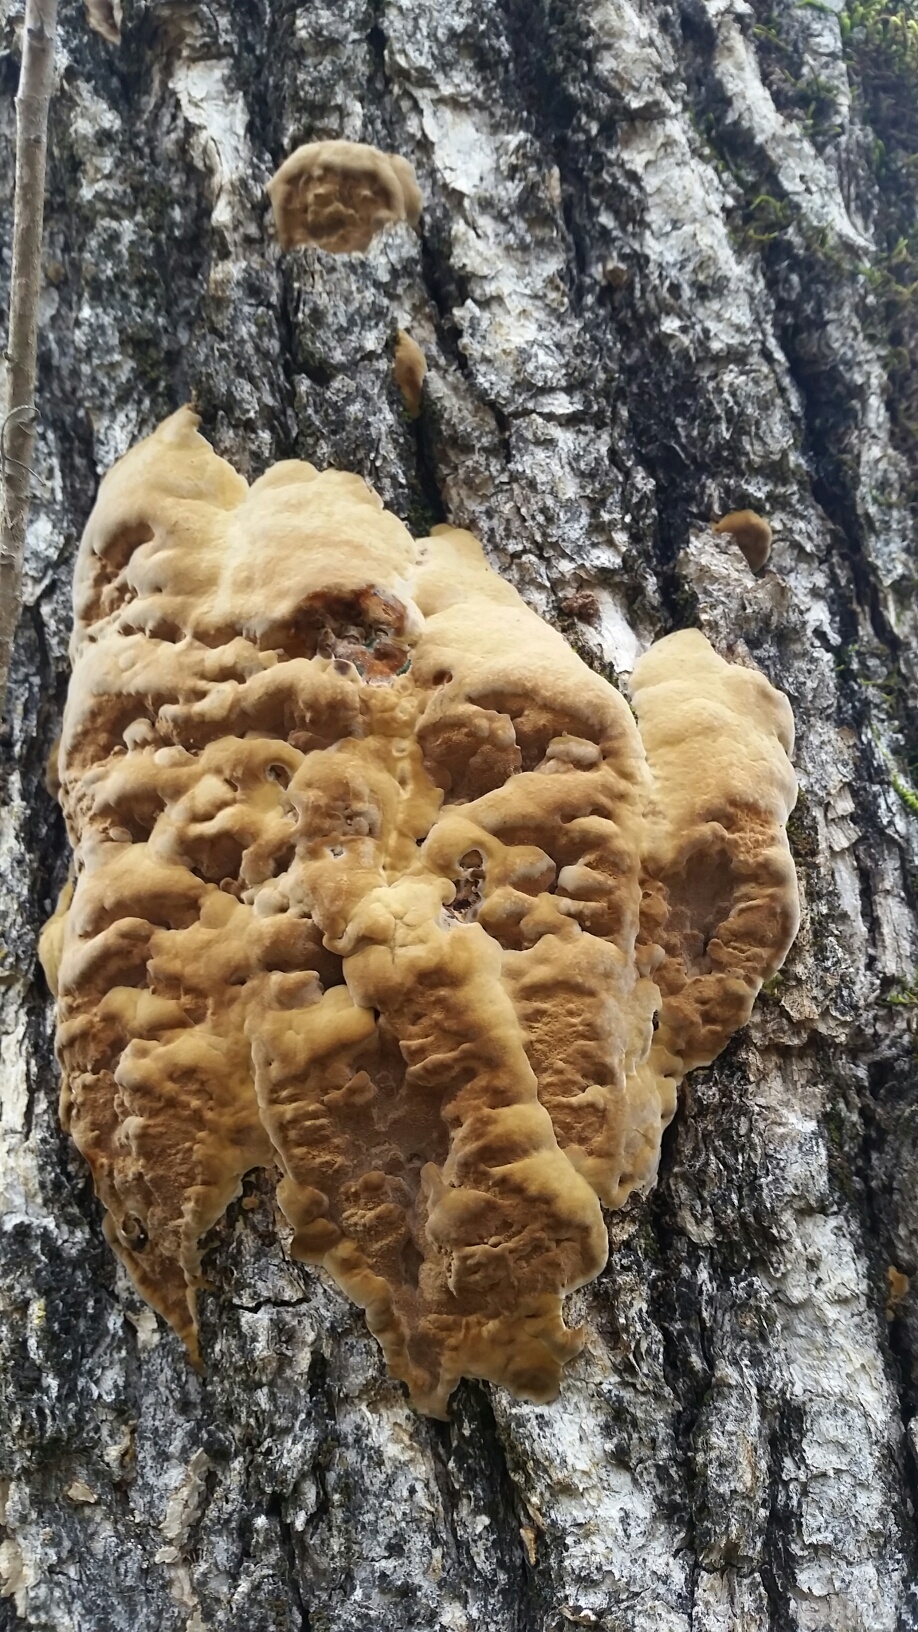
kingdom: Fungi
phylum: Basidiomycota
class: Agaricomycetes
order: Hymenochaetales
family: Hymenochaetaceae
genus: Phellinus
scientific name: Phellinus gilvus
